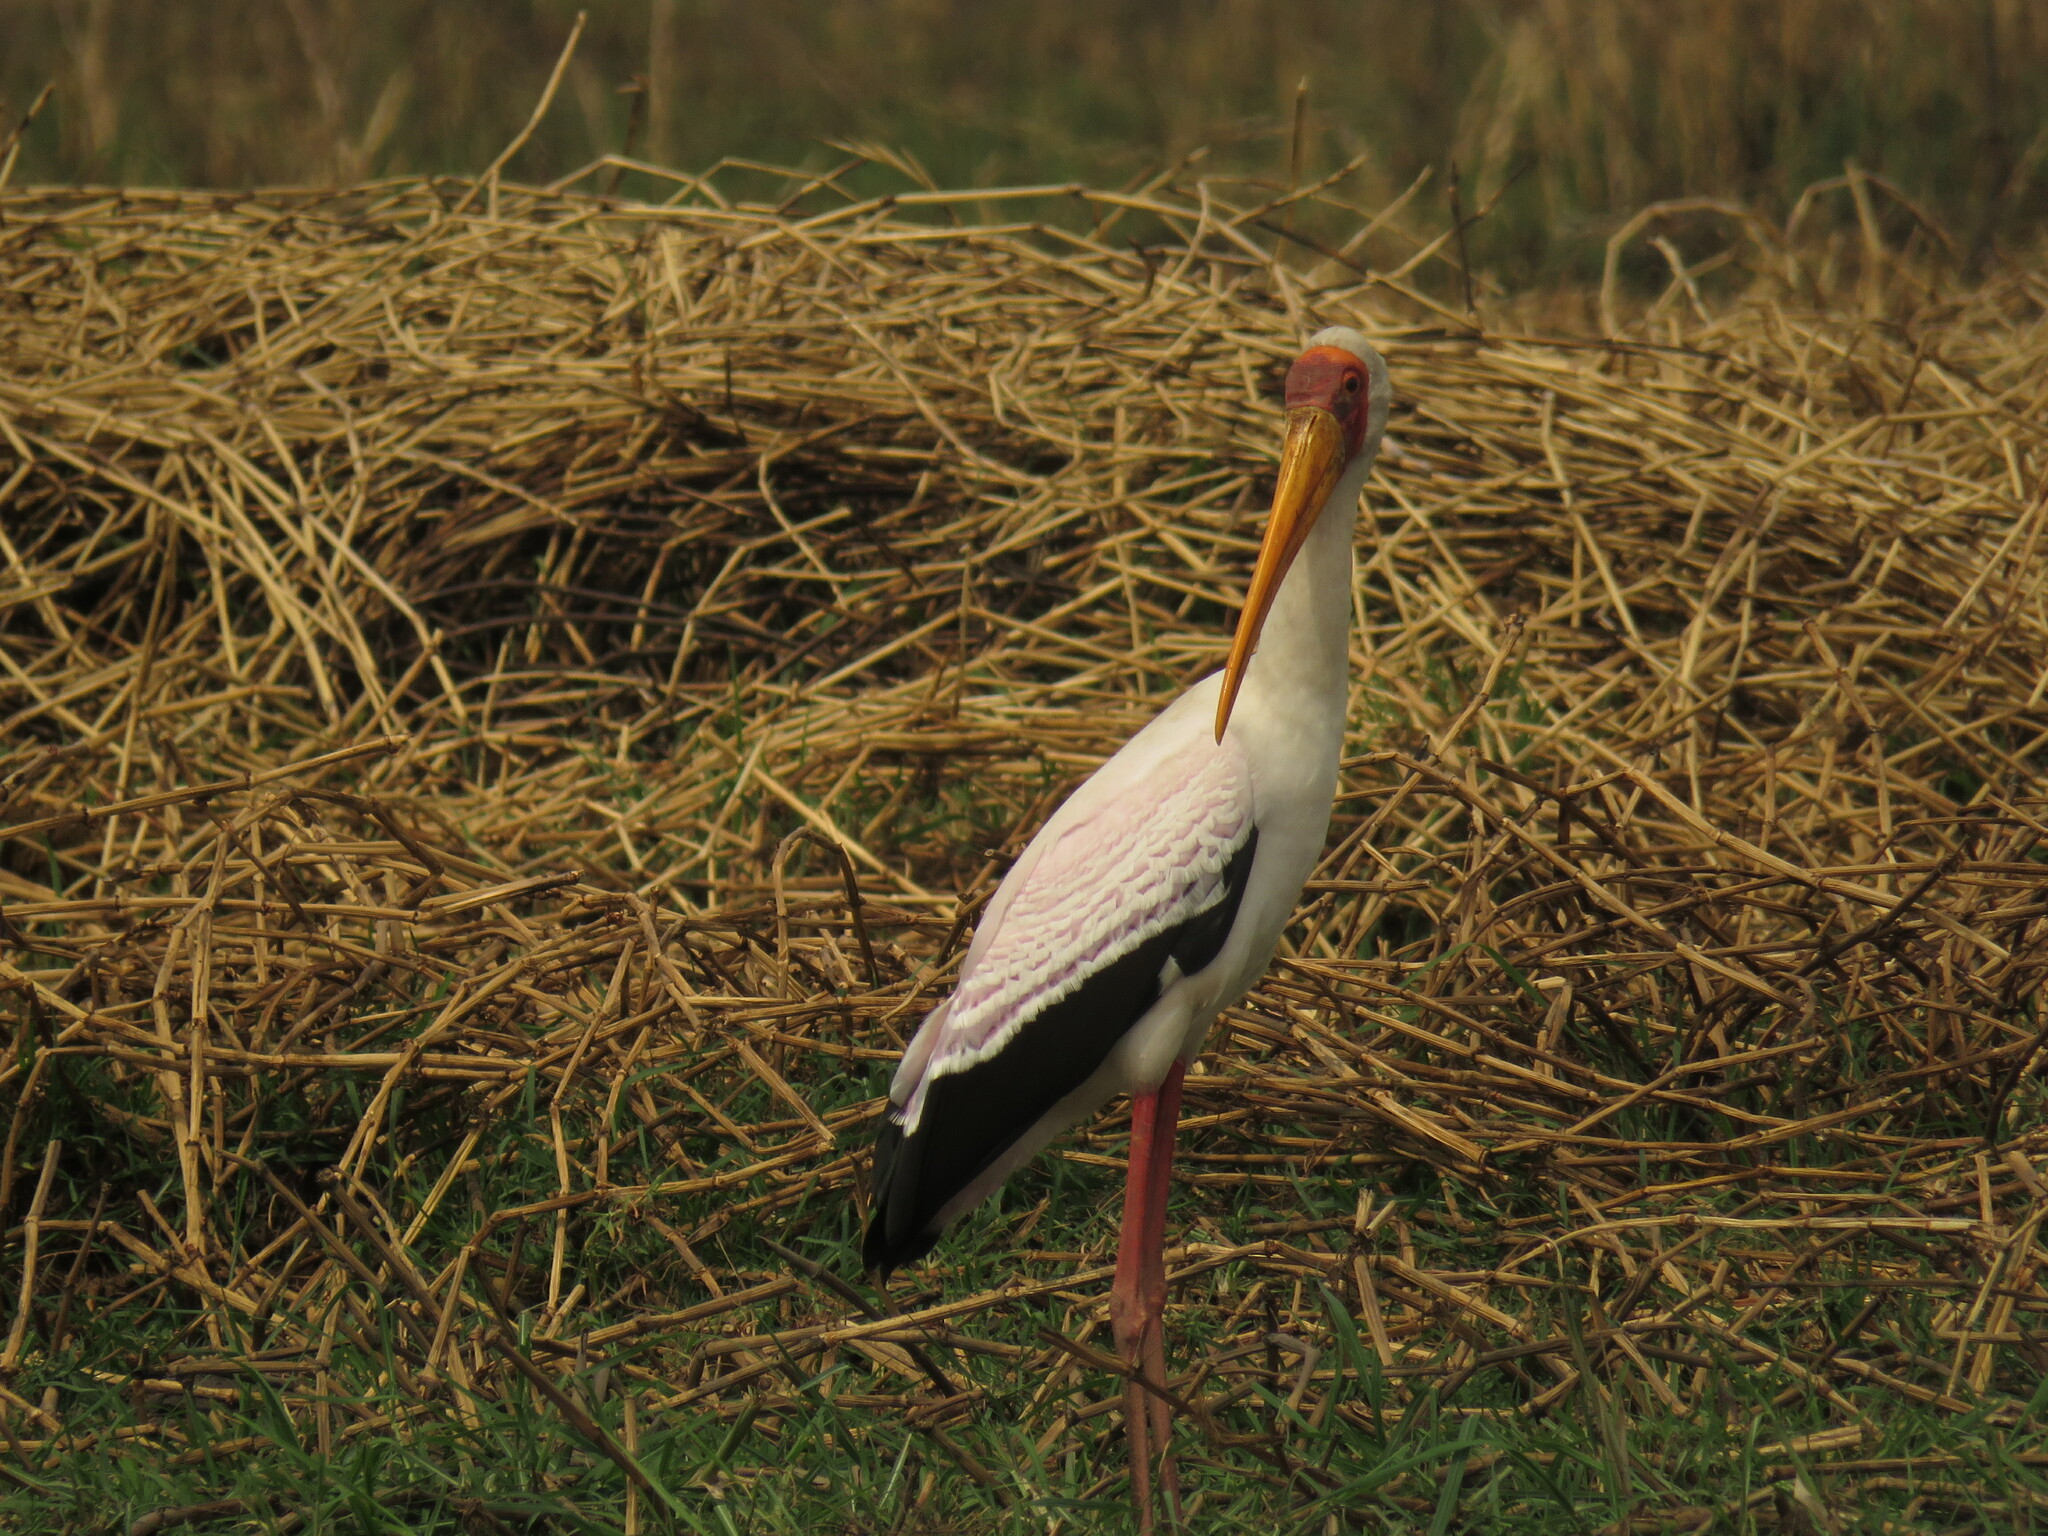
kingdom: Animalia
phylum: Chordata
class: Aves
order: Ciconiiformes
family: Ciconiidae
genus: Mycteria
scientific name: Mycteria ibis
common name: Yellow-billed stork
